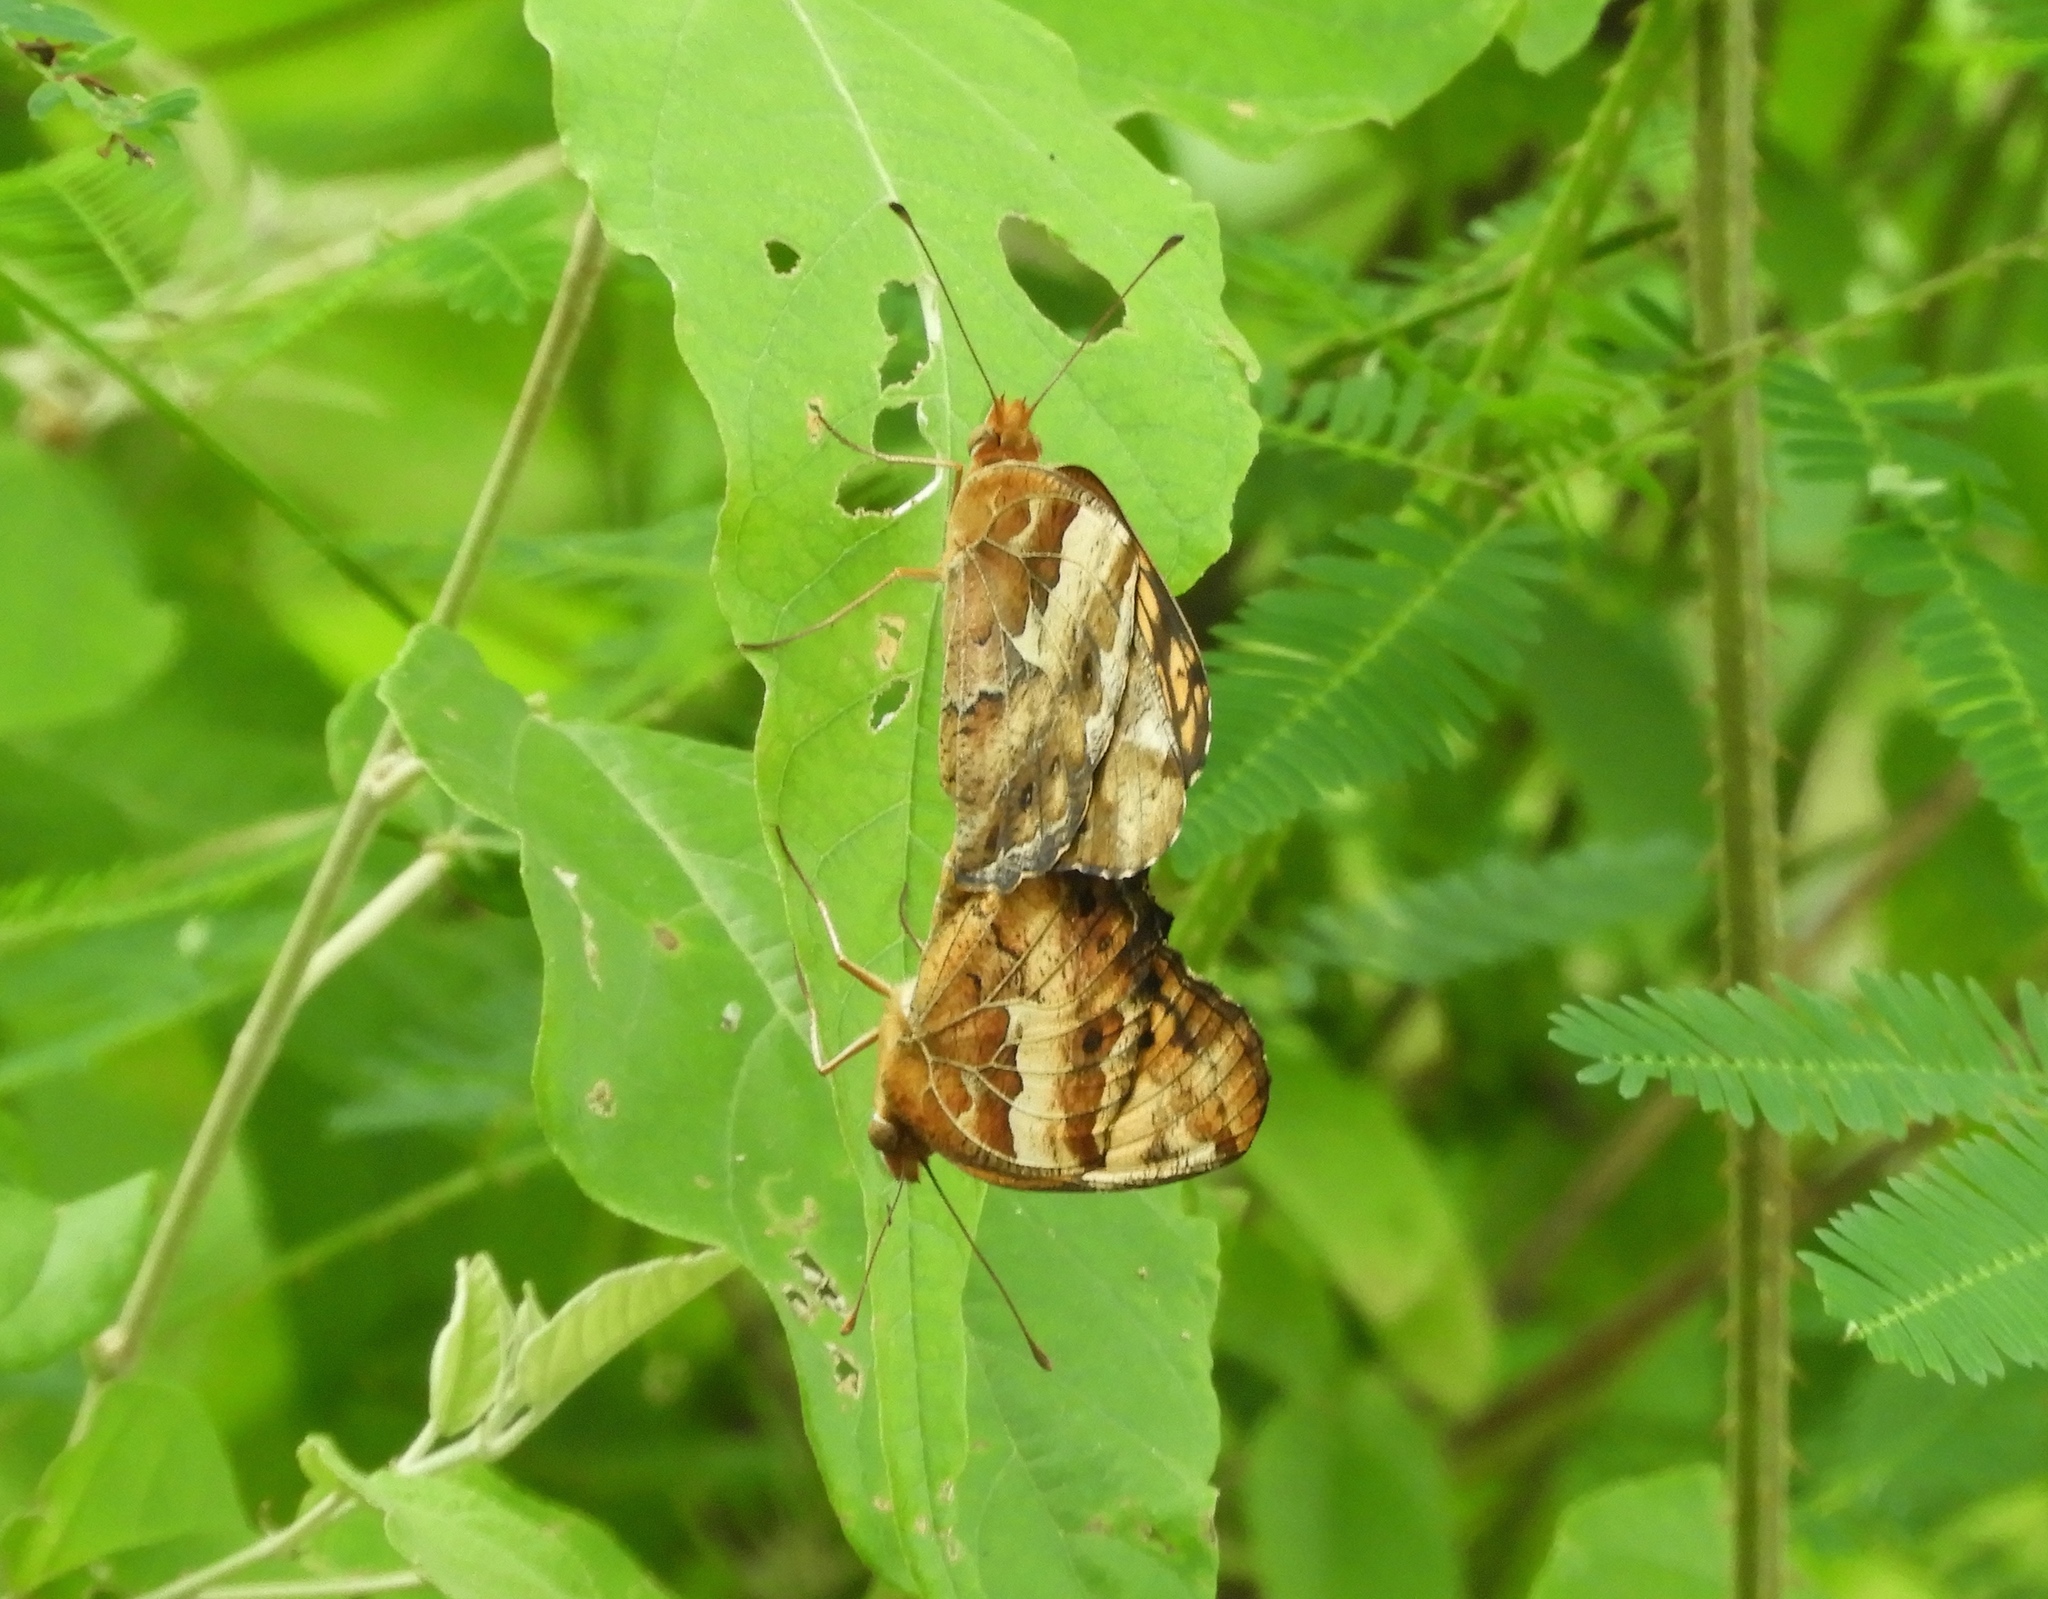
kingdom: Animalia
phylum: Arthropoda
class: Insecta
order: Lepidoptera
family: Nymphalidae
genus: Euptoieta
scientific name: Euptoieta claudia
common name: Variegated fritillary
